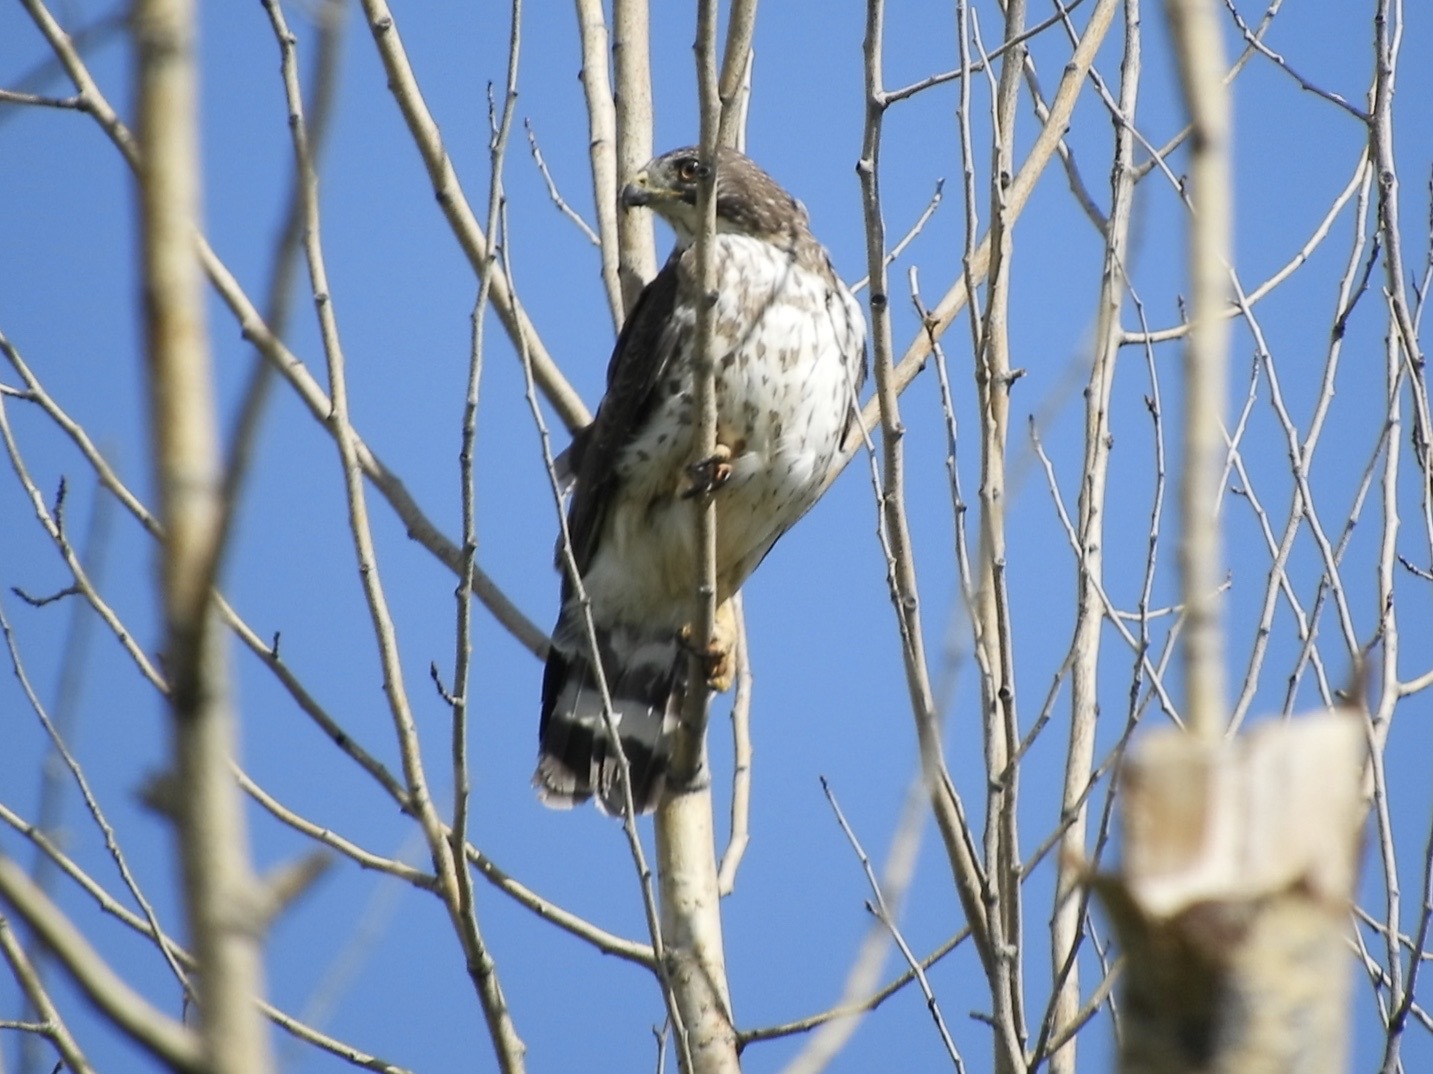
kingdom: Animalia
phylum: Chordata
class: Aves
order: Accipitriformes
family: Accipitridae
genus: Buteo
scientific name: Buteo platypterus
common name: Broad-winged hawk
